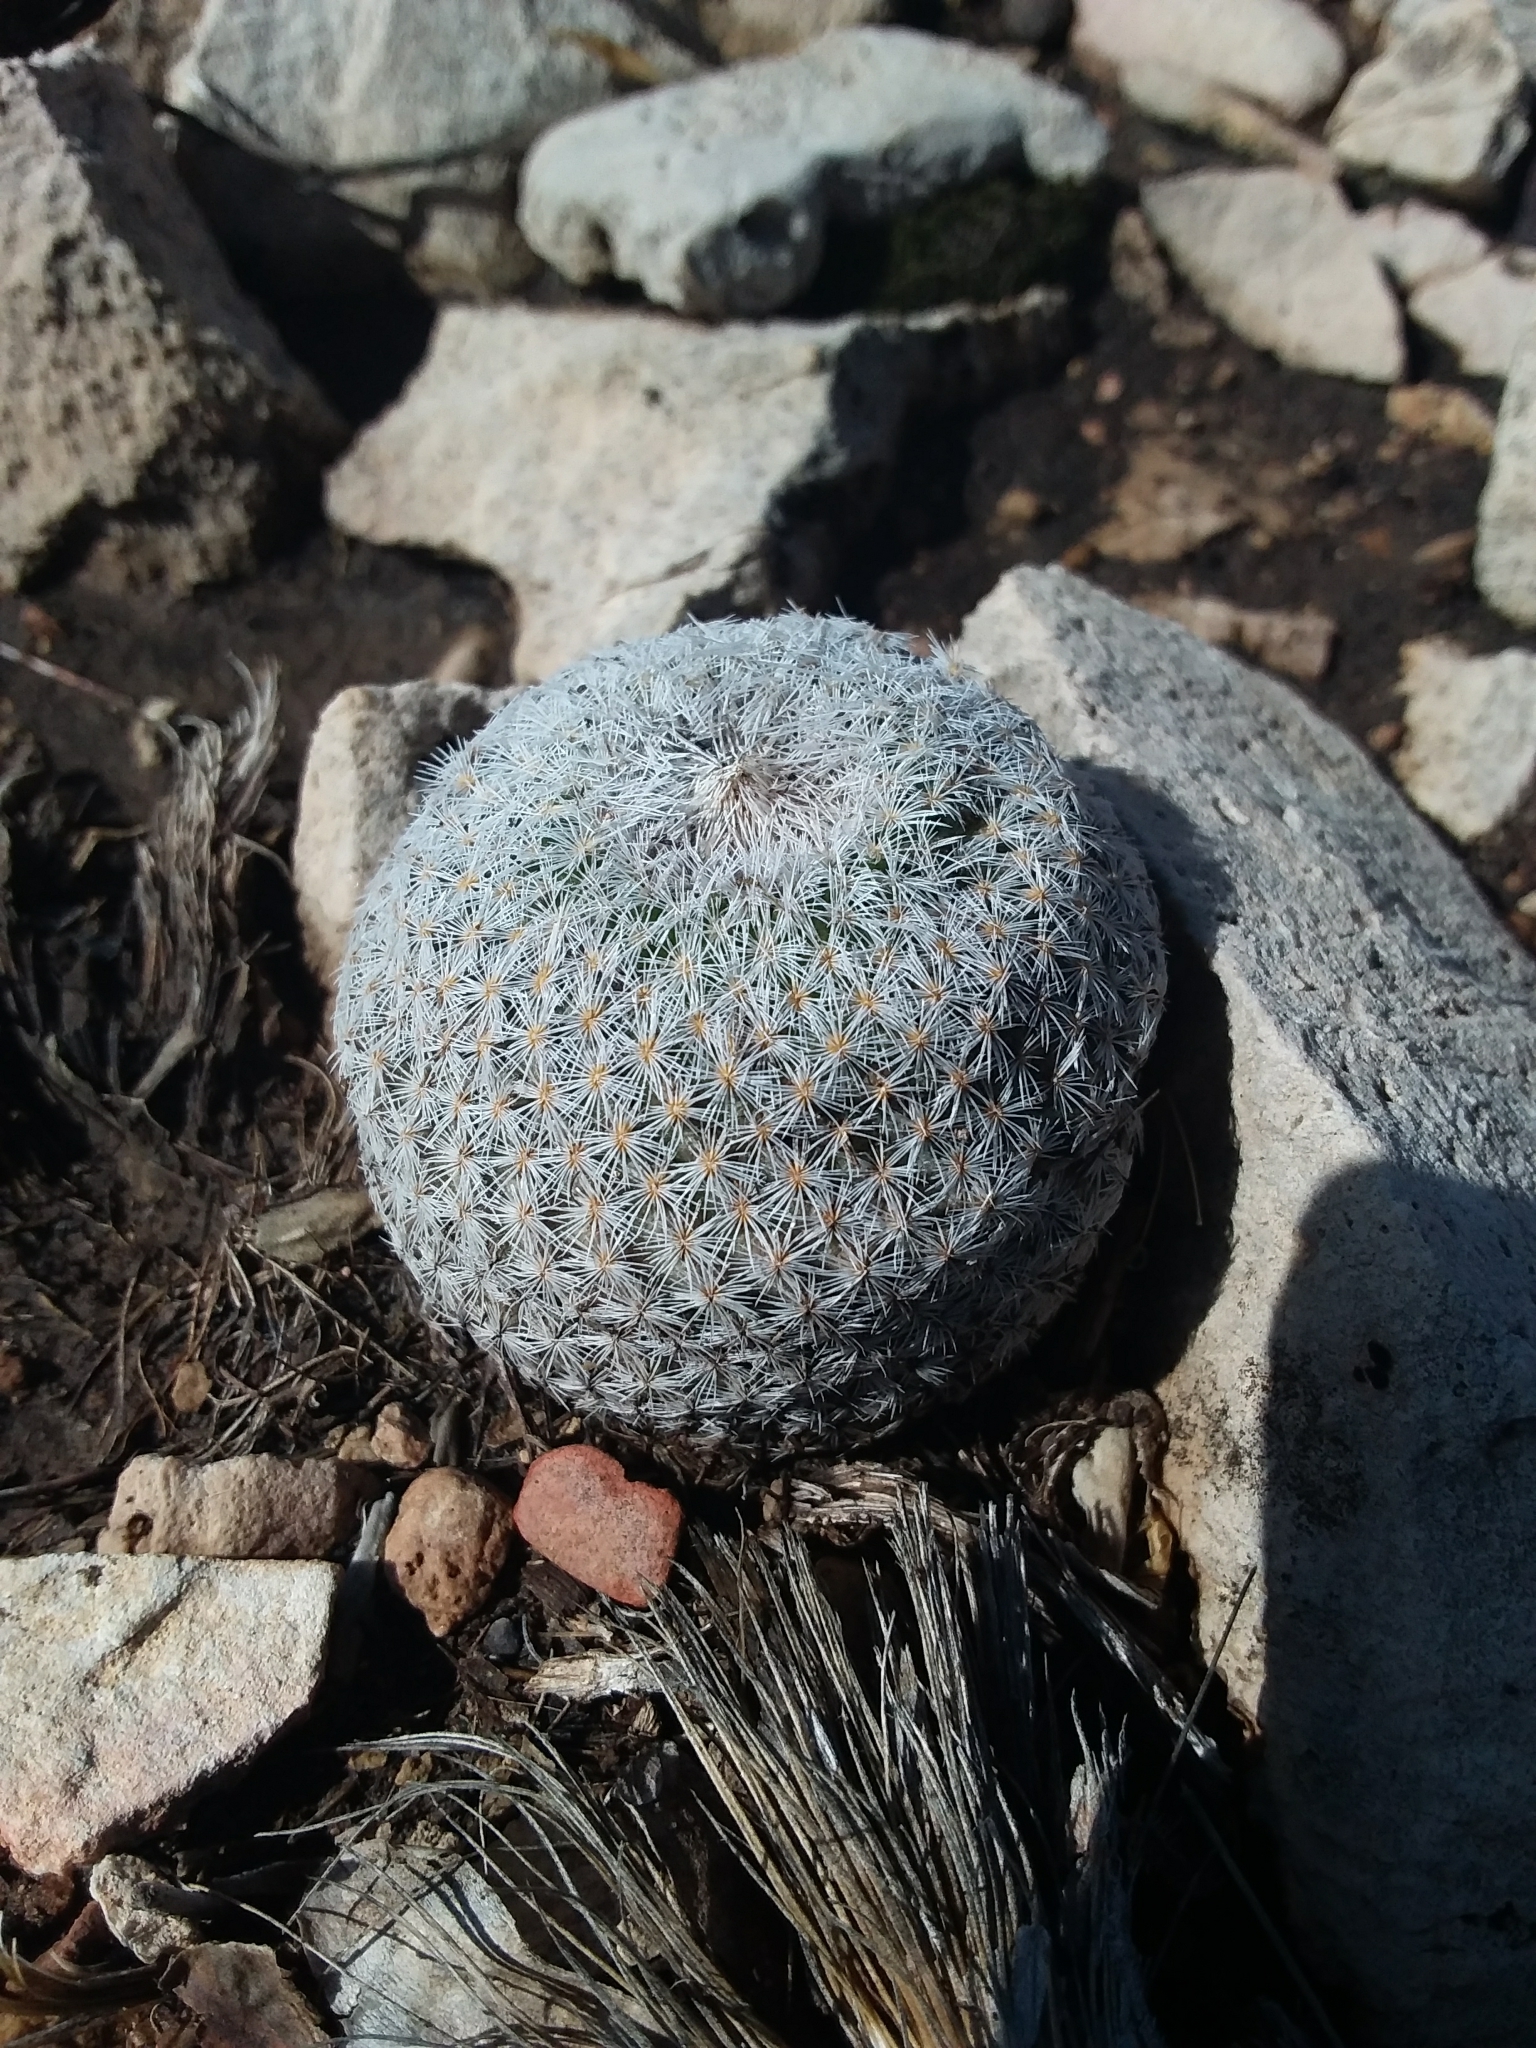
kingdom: Plantae
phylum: Tracheophyta
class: Magnoliopsida
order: Caryophyllales
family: Cactaceae
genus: Epithelantha
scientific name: Epithelantha micromeris
